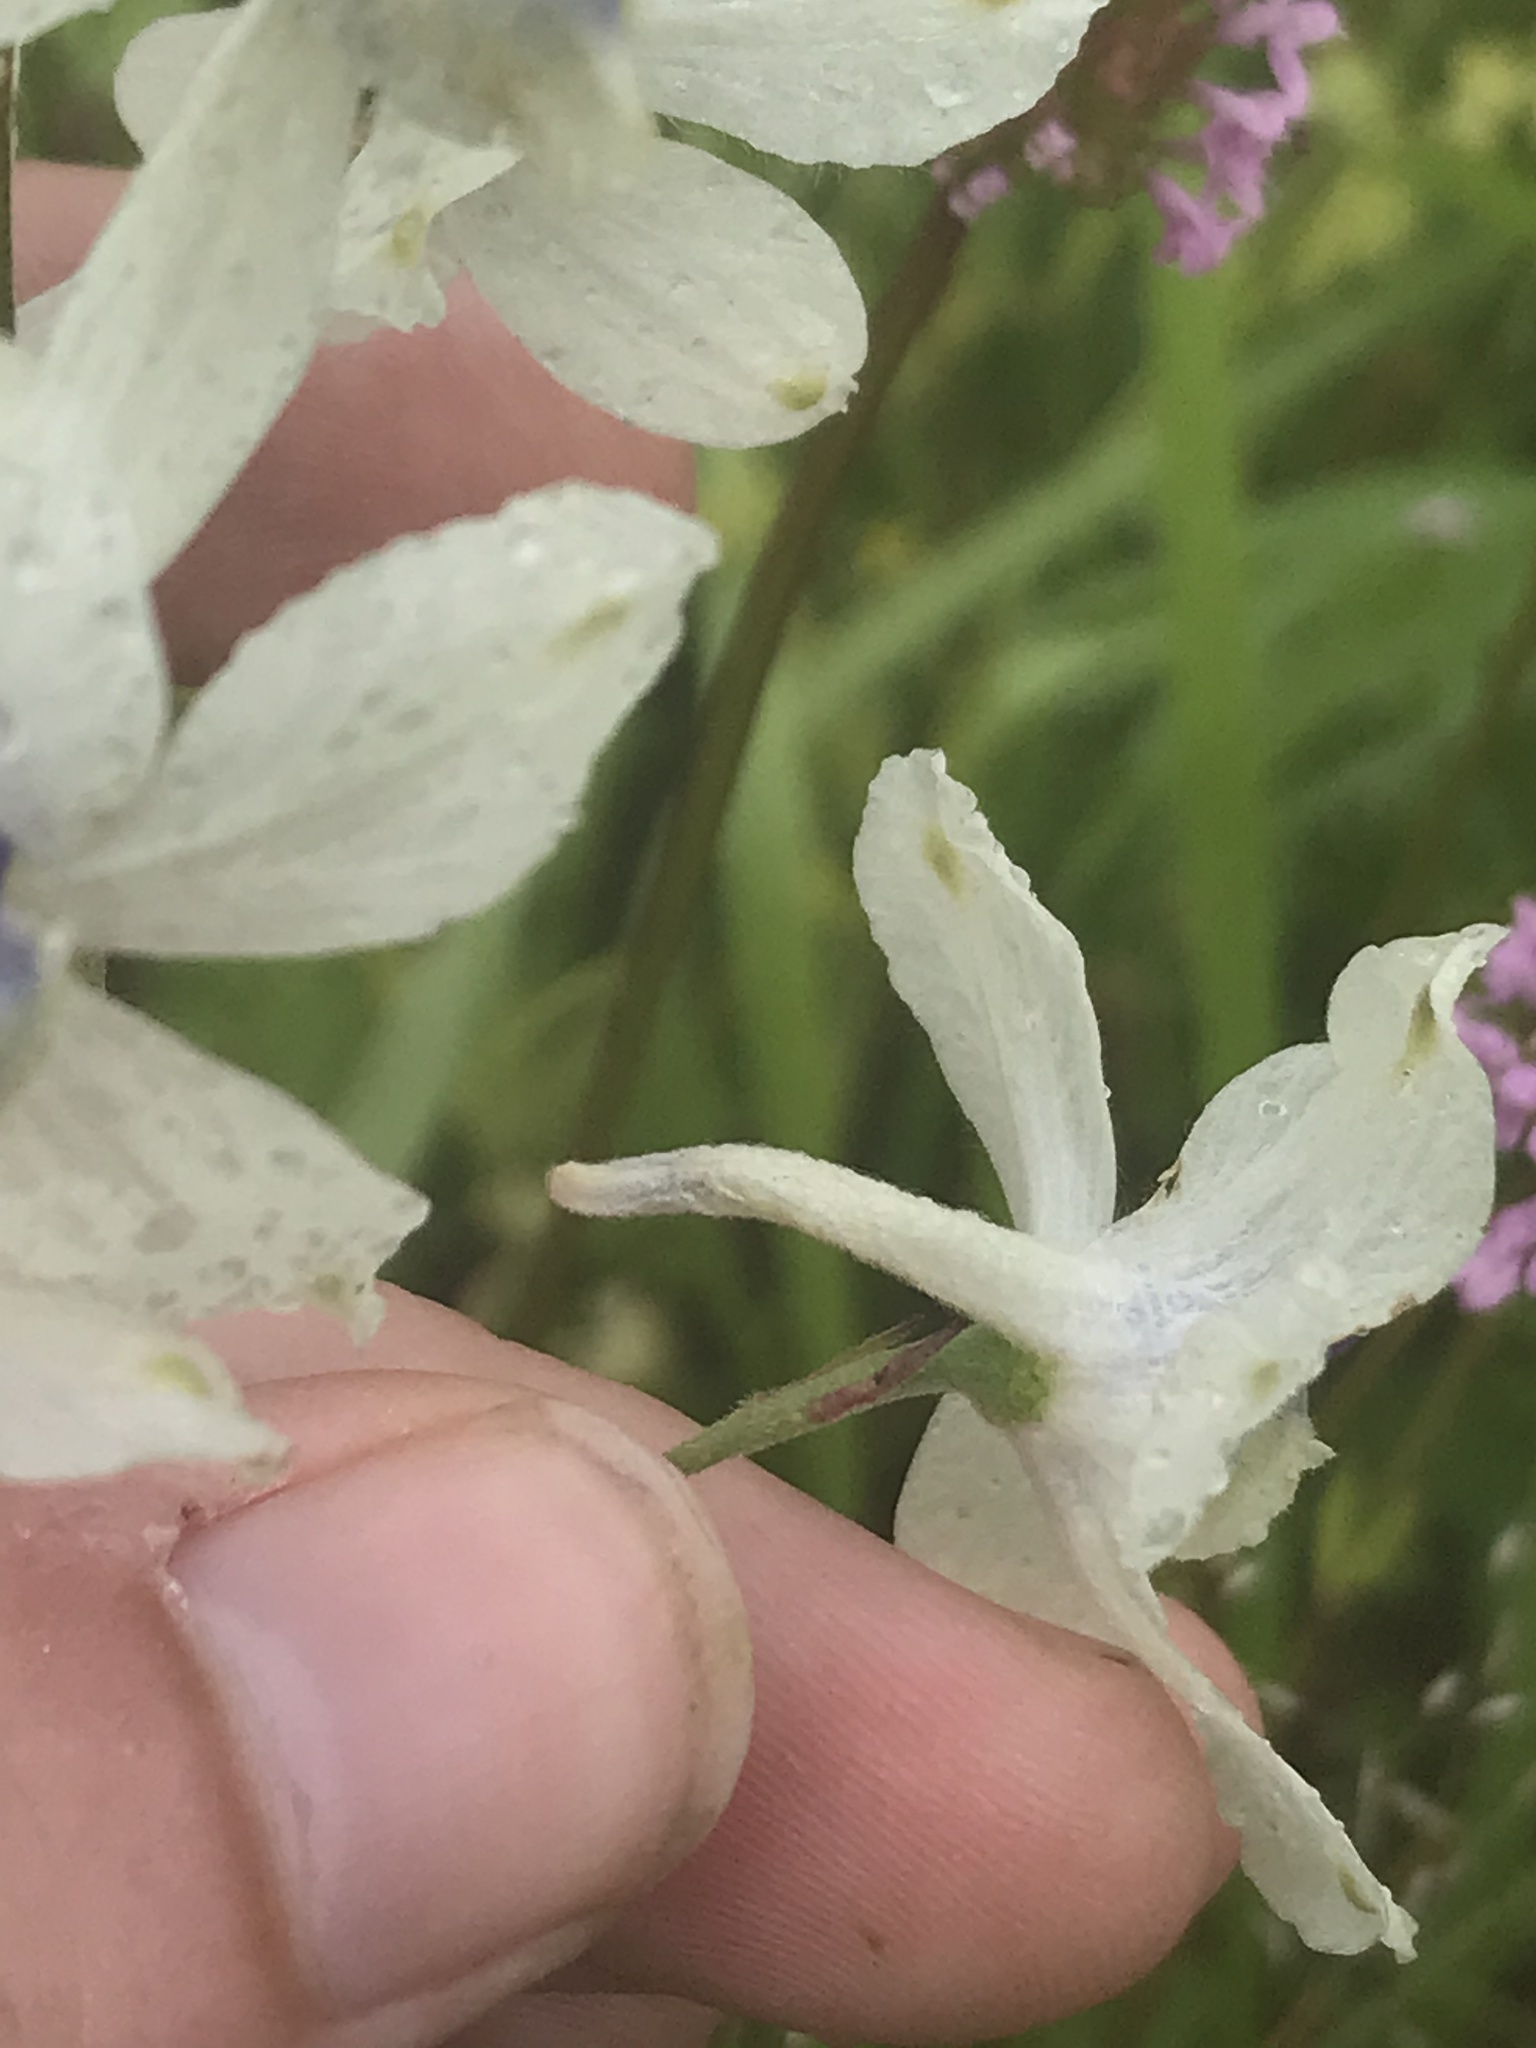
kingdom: Plantae
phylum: Tracheophyta
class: Magnoliopsida
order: Ranunculales
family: Ranunculaceae
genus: Delphinium
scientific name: Delphinium pavonaceum
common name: Peacock larkspur
